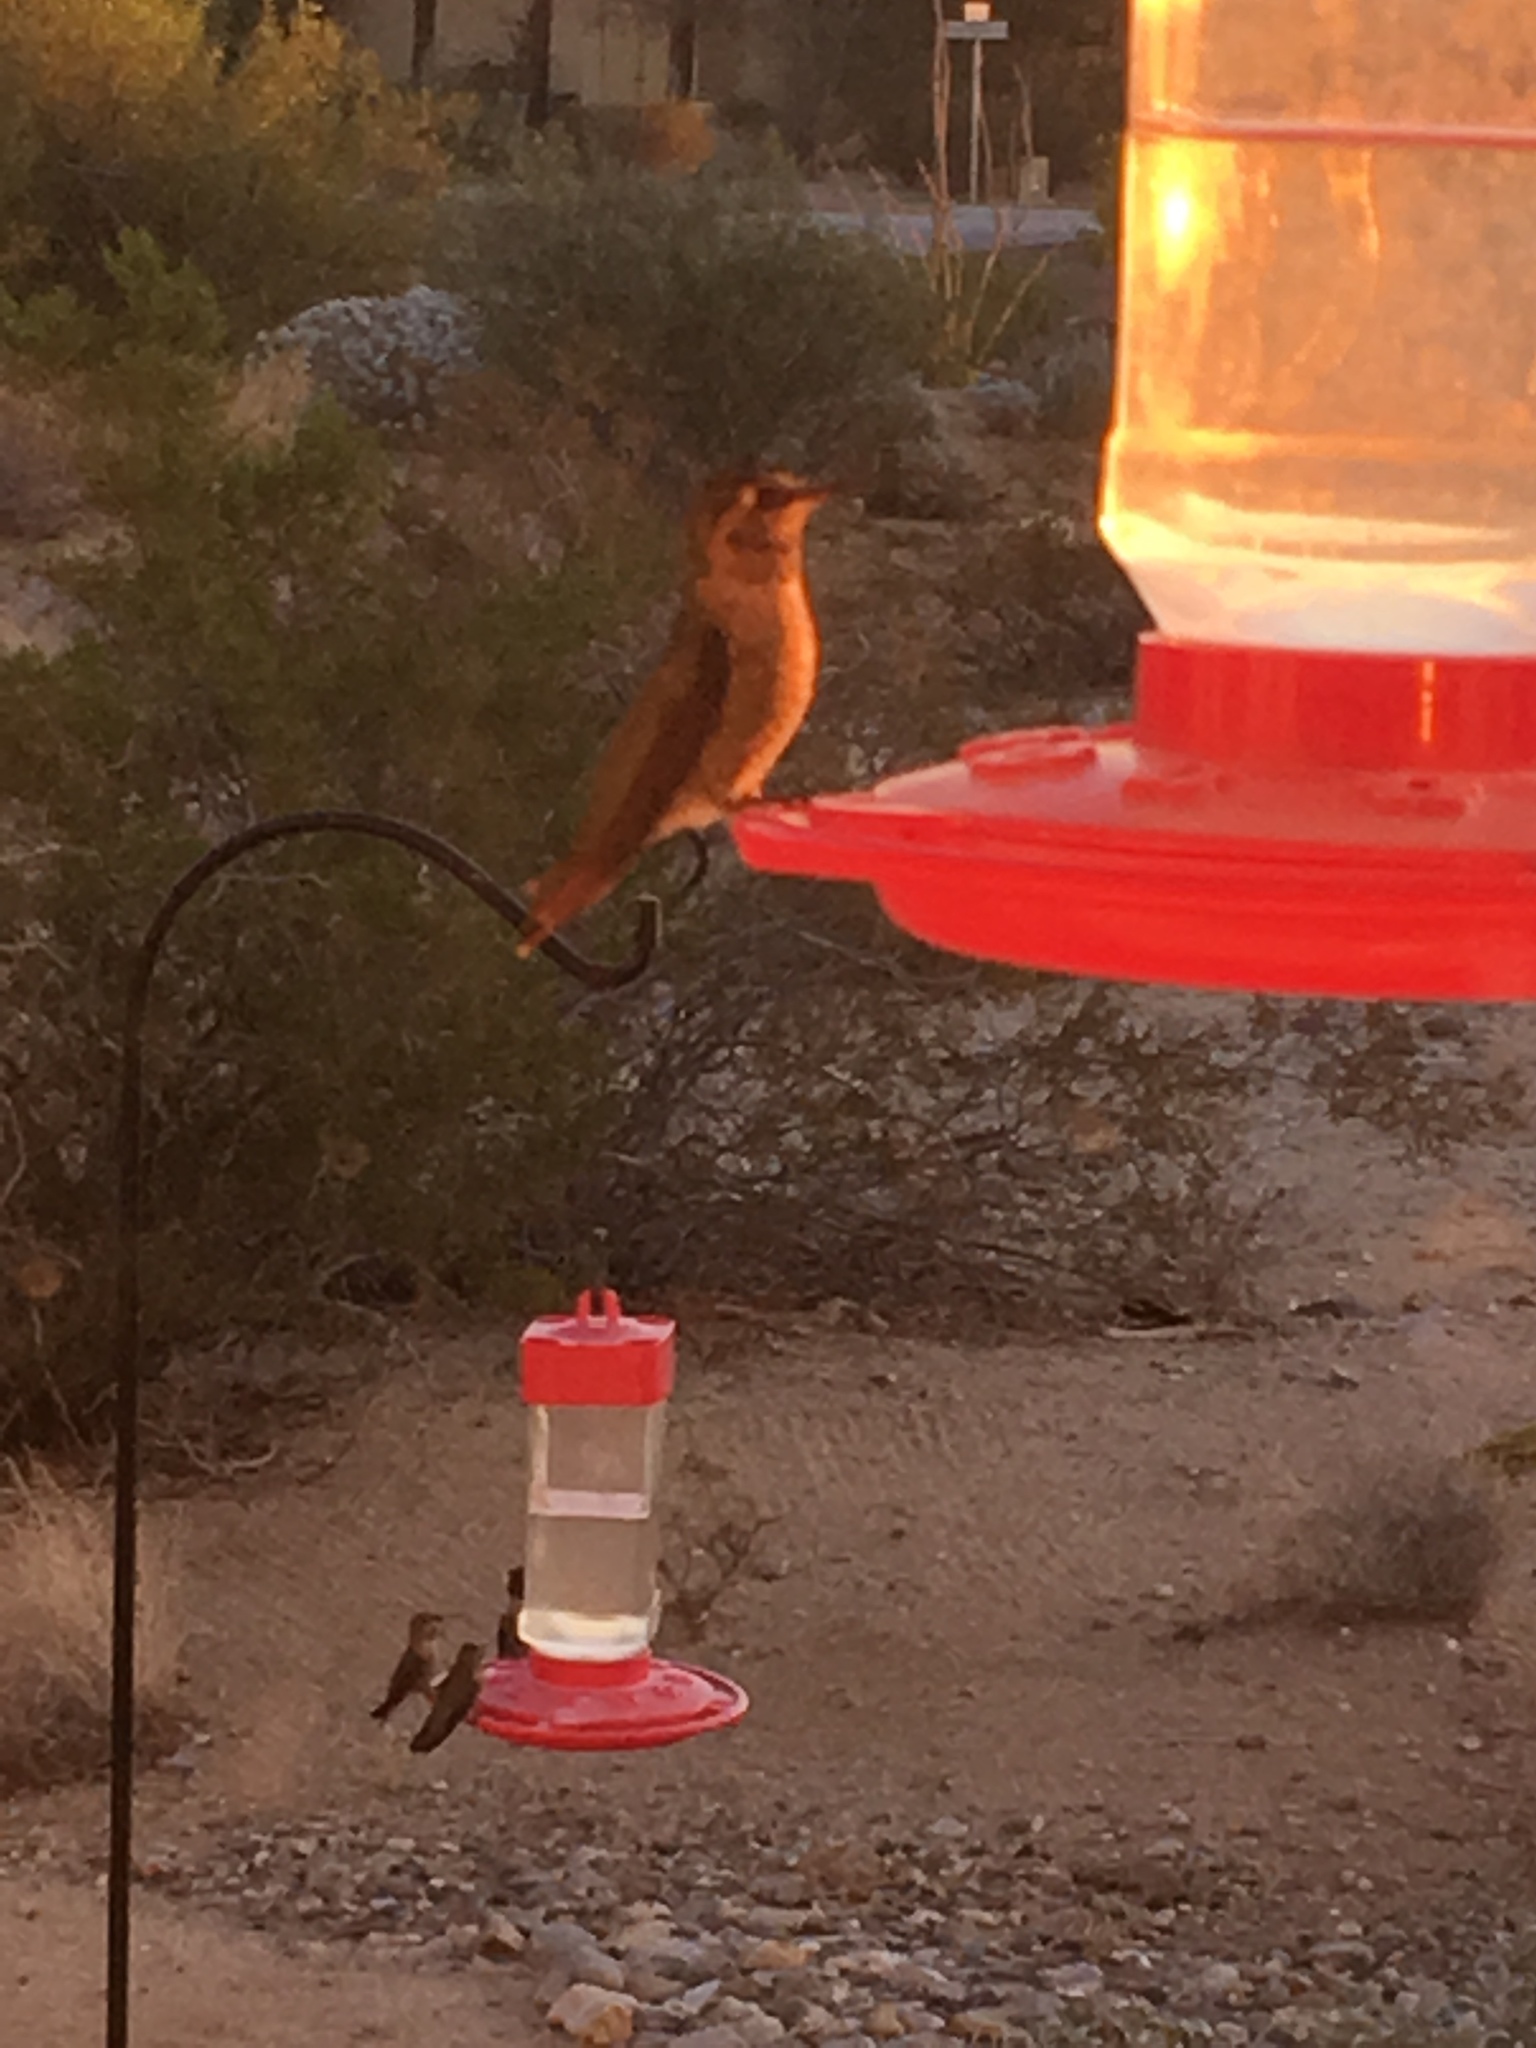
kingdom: Animalia
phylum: Chordata
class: Aves
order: Apodiformes
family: Trochilidae
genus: Calypte
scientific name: Calypte anna
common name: Anna's hummingbird
